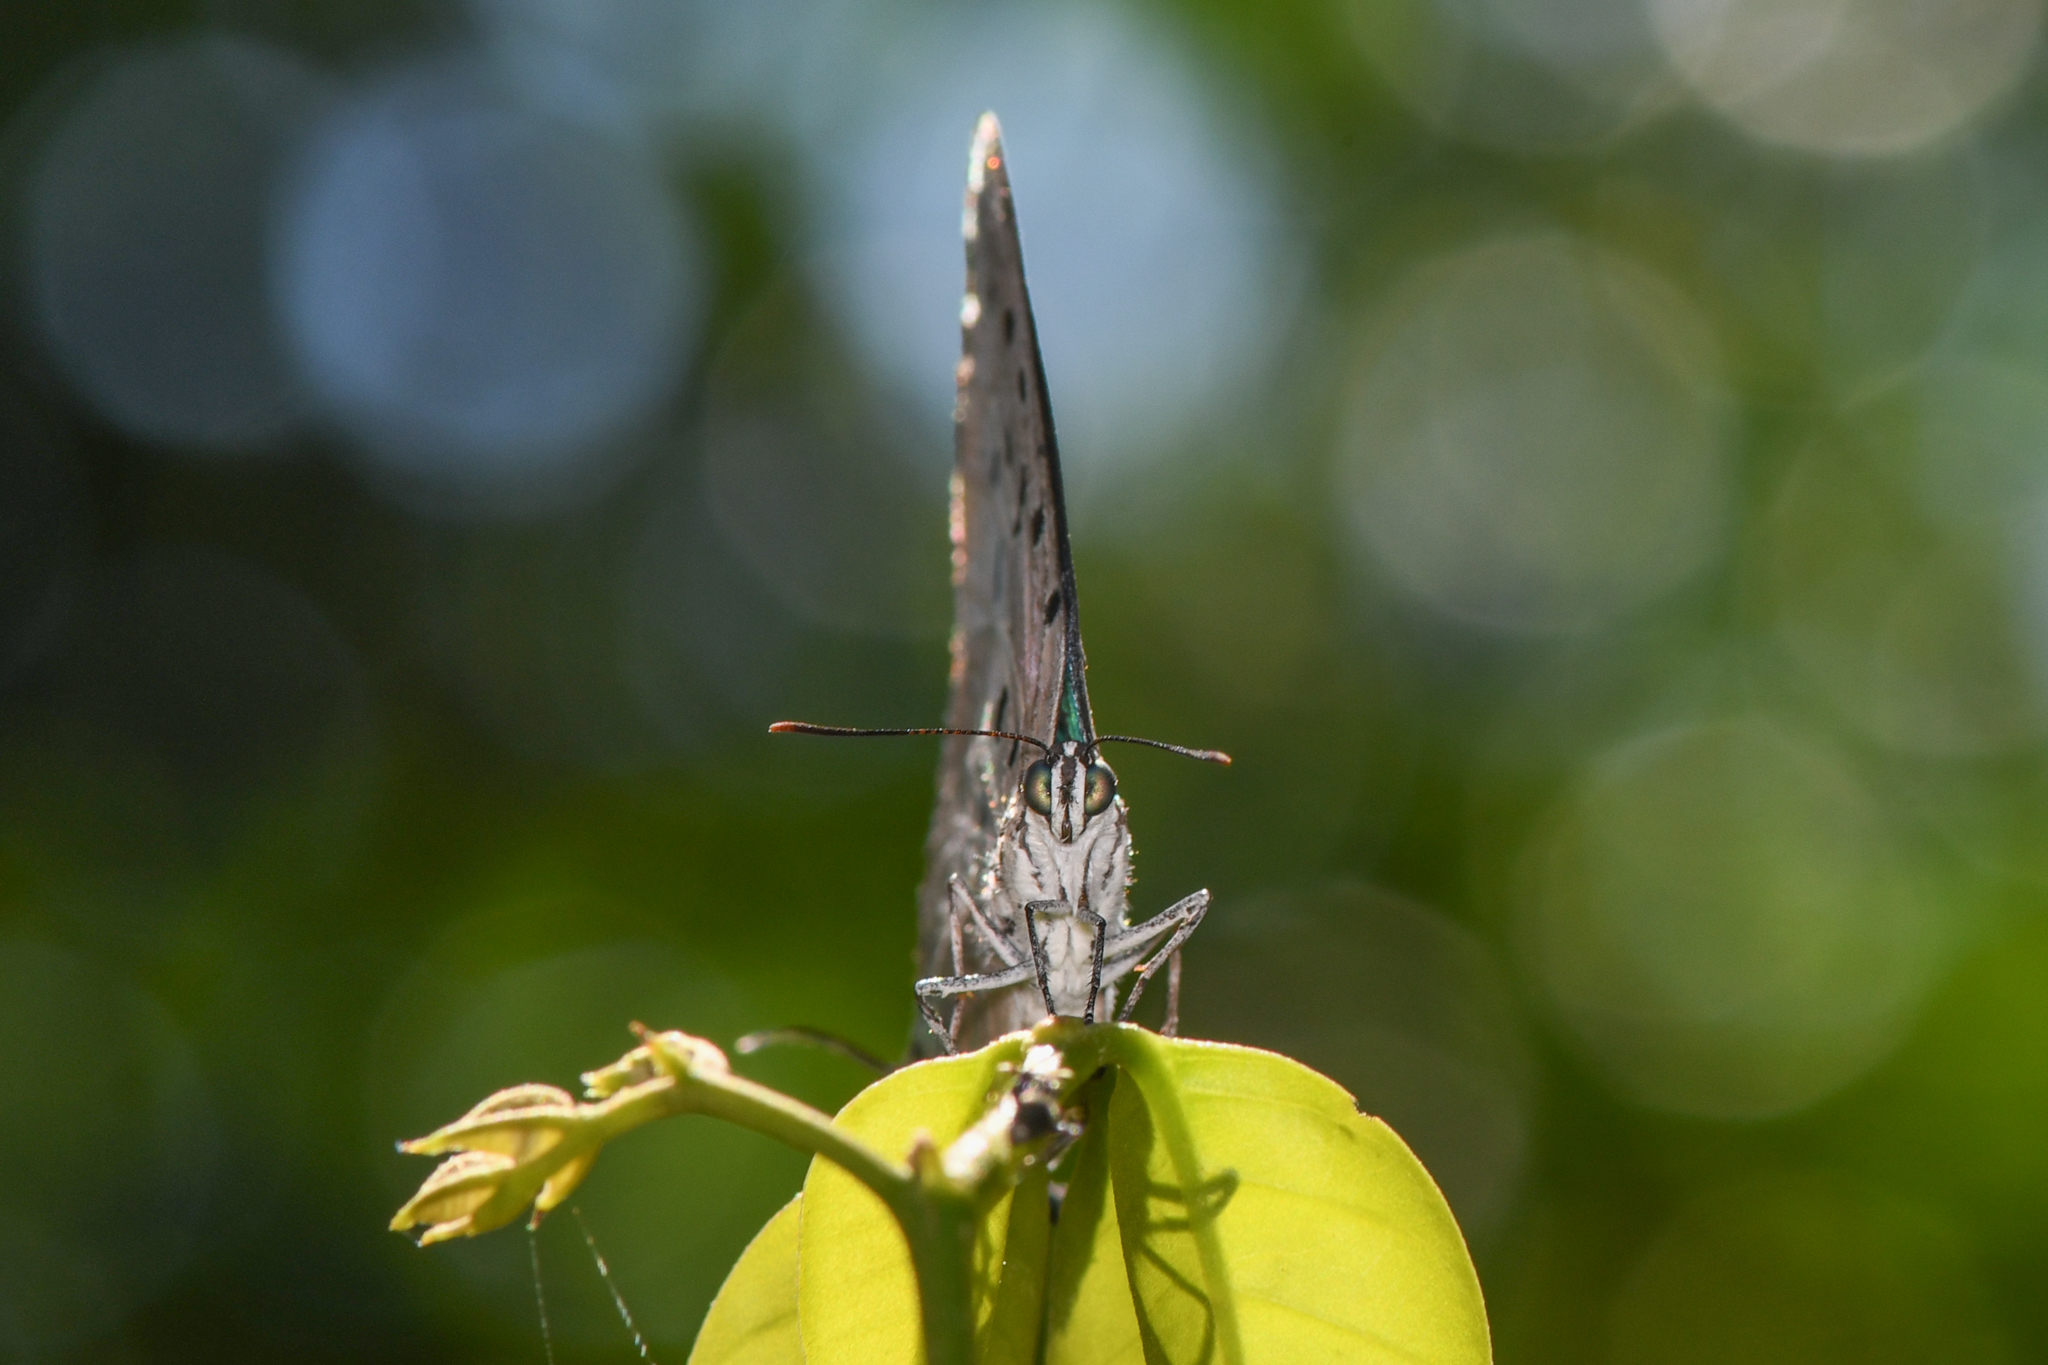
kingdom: Animalia
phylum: Arthropoda
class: Insecta
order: Lepidoptera
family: Lycaenidae
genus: Pseudolycaena
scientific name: Pseudolycaena damo
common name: Sky-blue hairstreak
